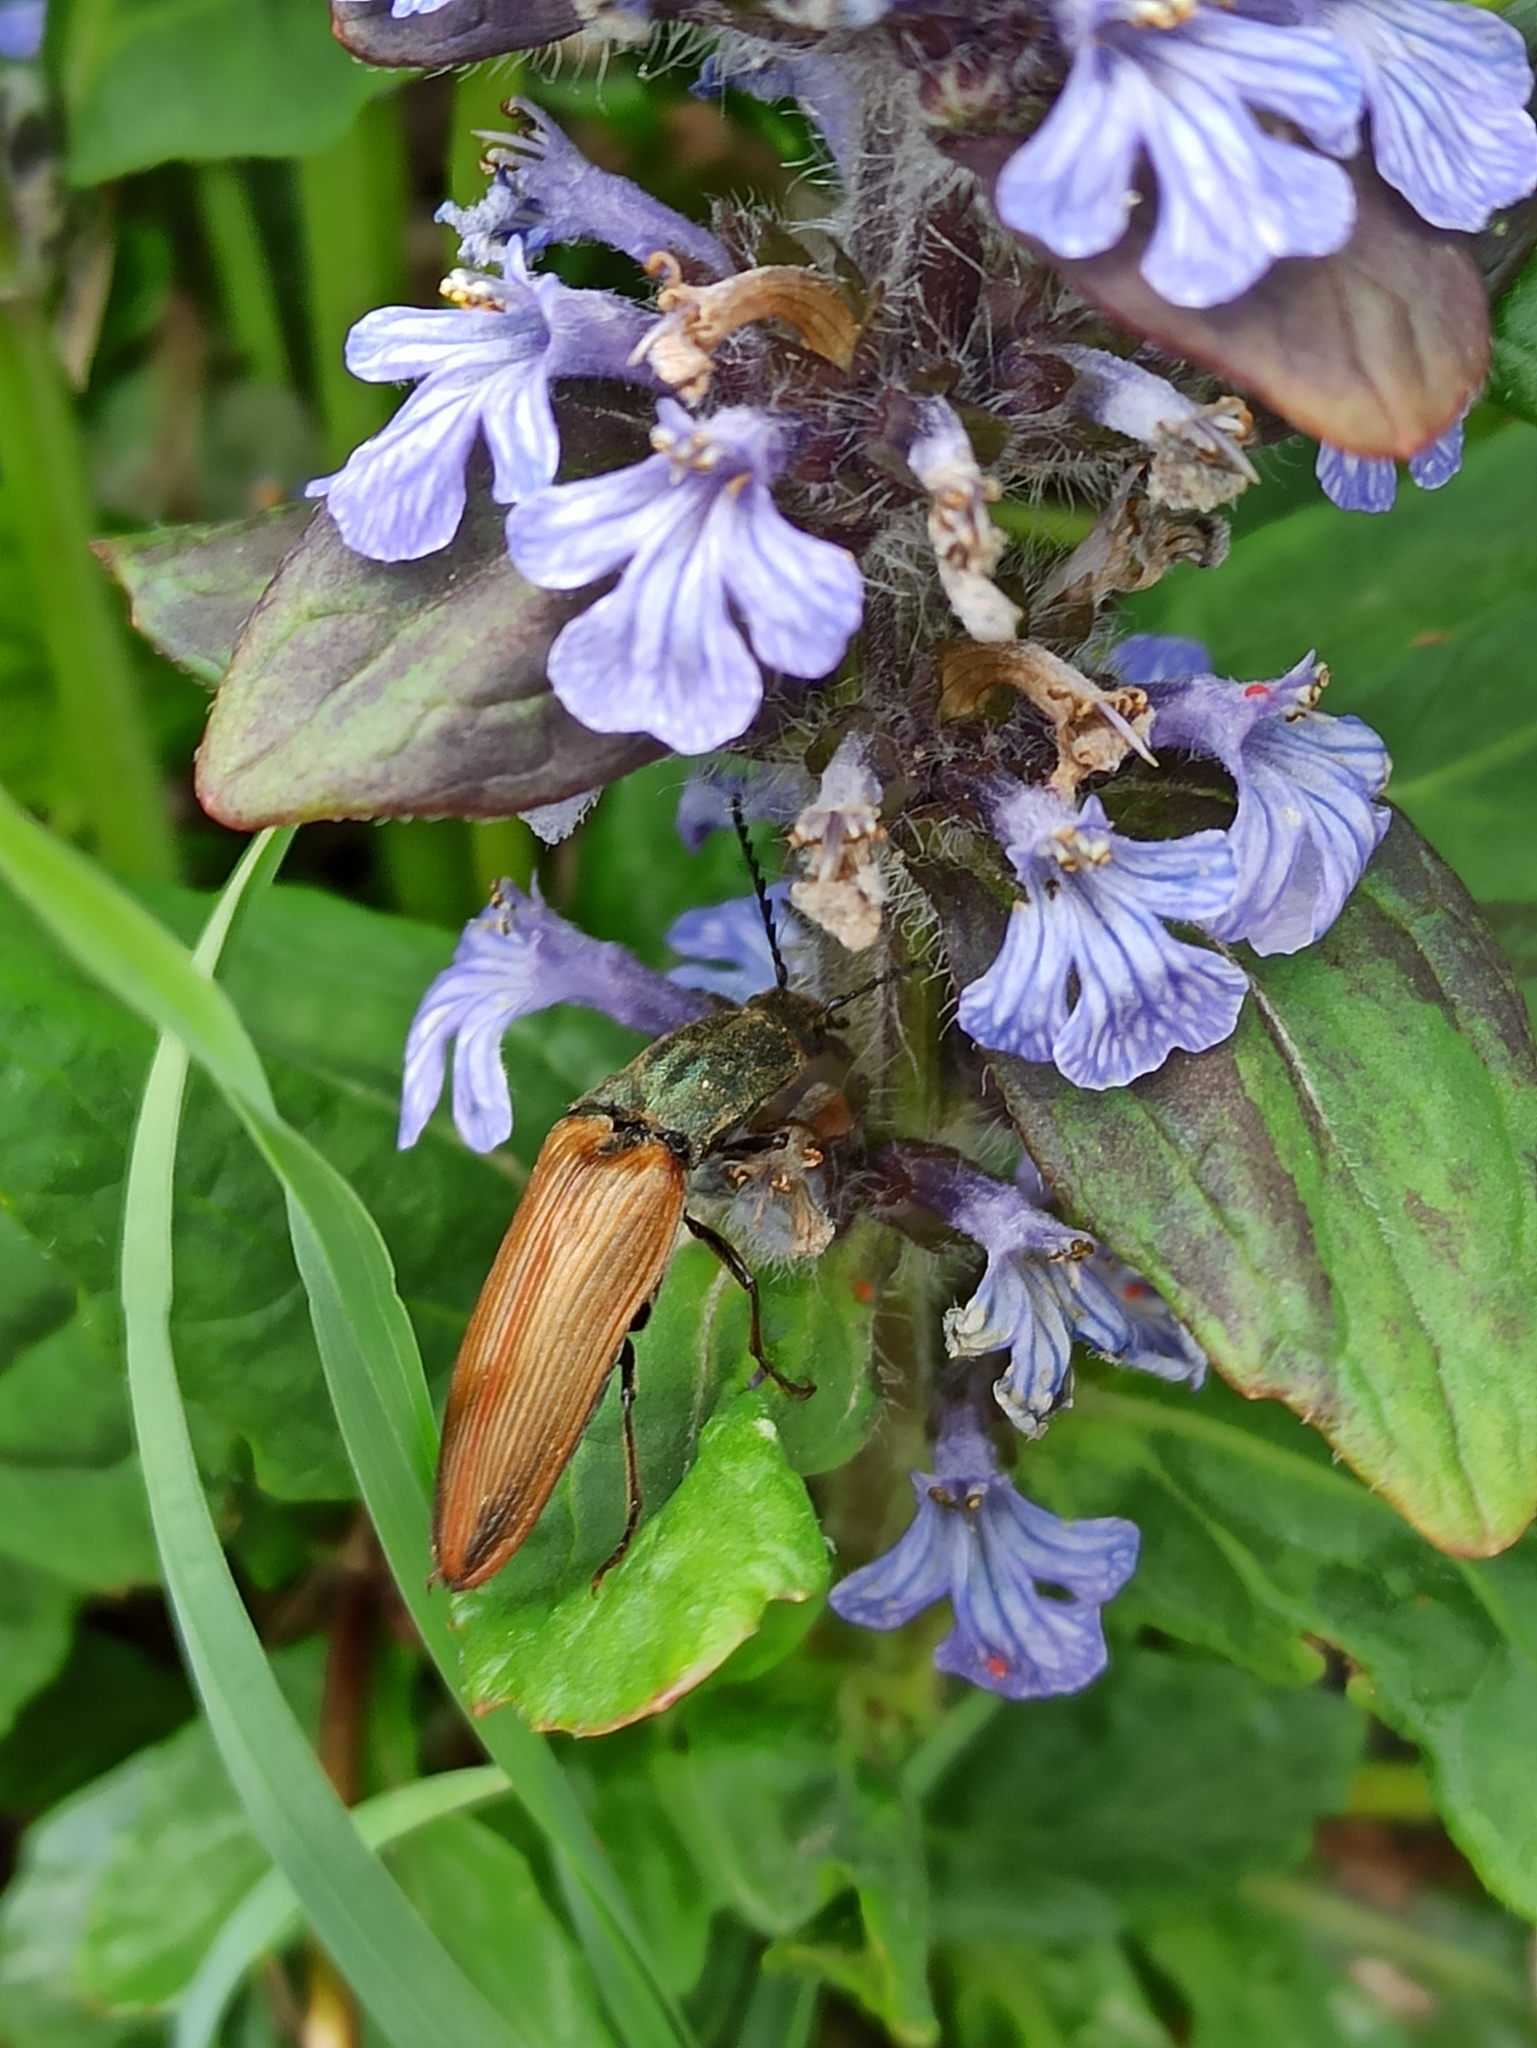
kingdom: Animalia
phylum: Arthropoda
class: Insecta
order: Coleoptera
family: Elateridae
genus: Ctenicera
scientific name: Ctenicera virens
